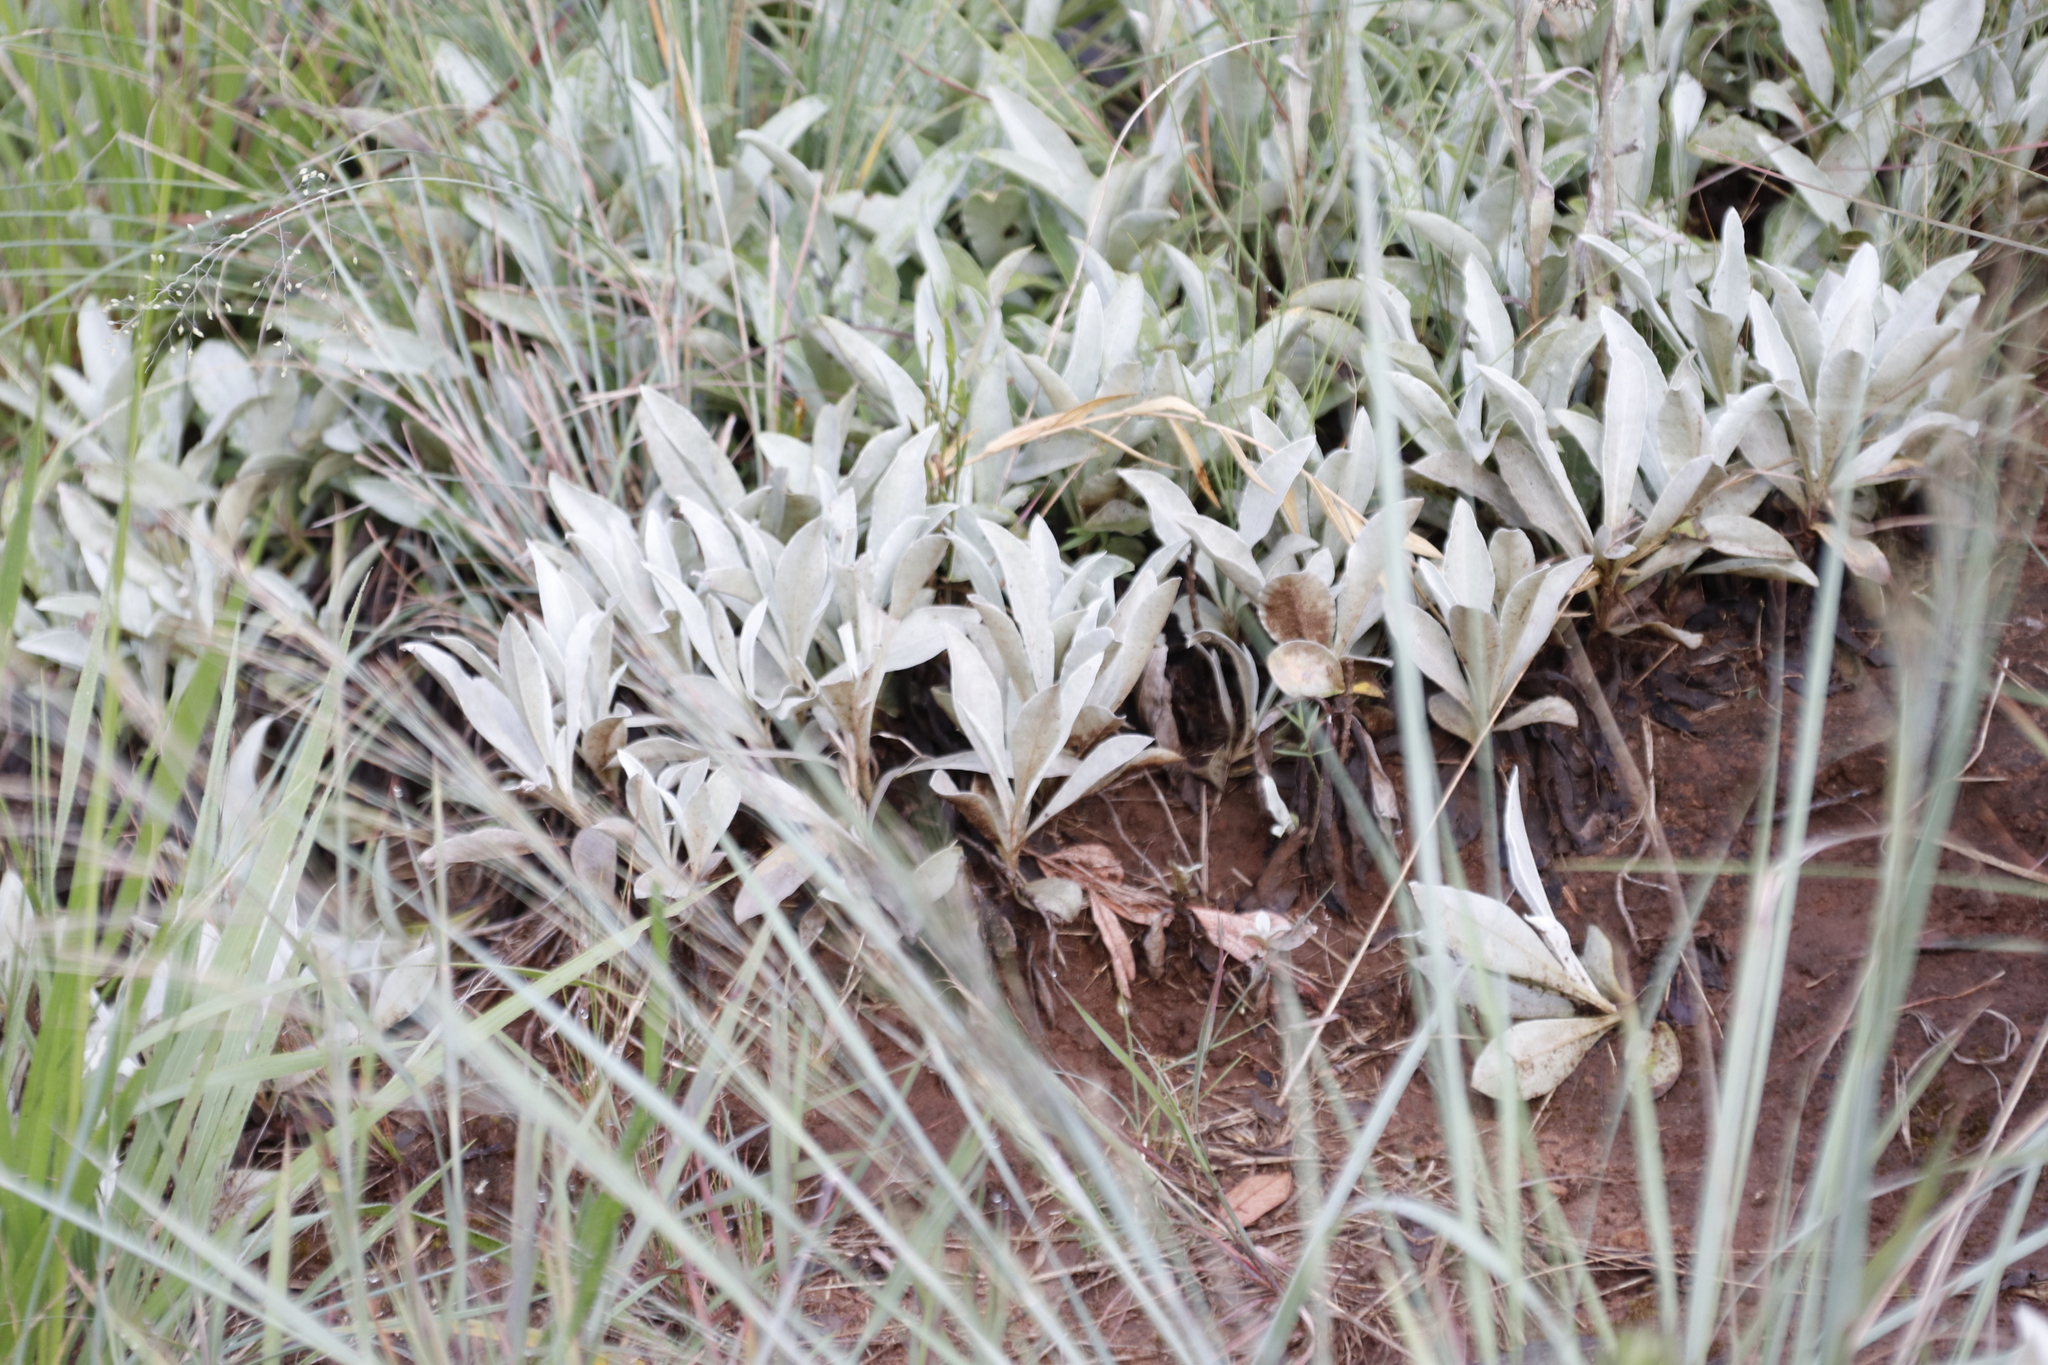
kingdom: Plantae
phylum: Tracheophyta
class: Magnoliopsida
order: Asterales
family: Asteraceae
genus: Helichrysum
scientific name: Helichrysum oreophilum
